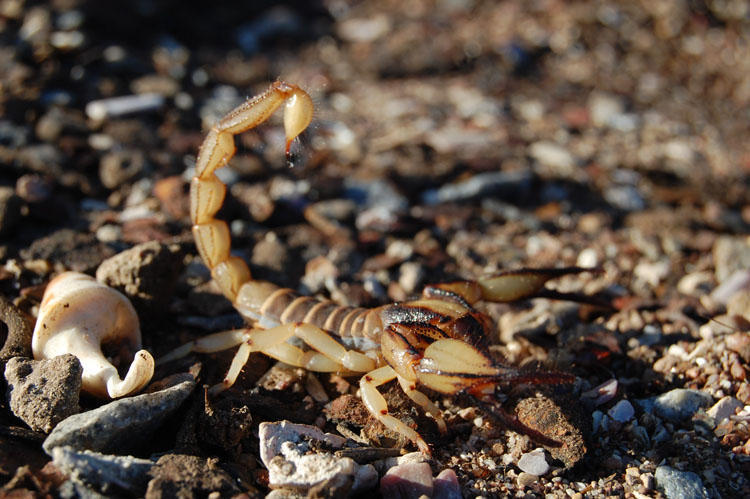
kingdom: Animalia
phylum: Arthropoda
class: Arachnida
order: Scorpiones
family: Scorpionidae
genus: Opistophthalmus
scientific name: Opistophthalmus capensis
